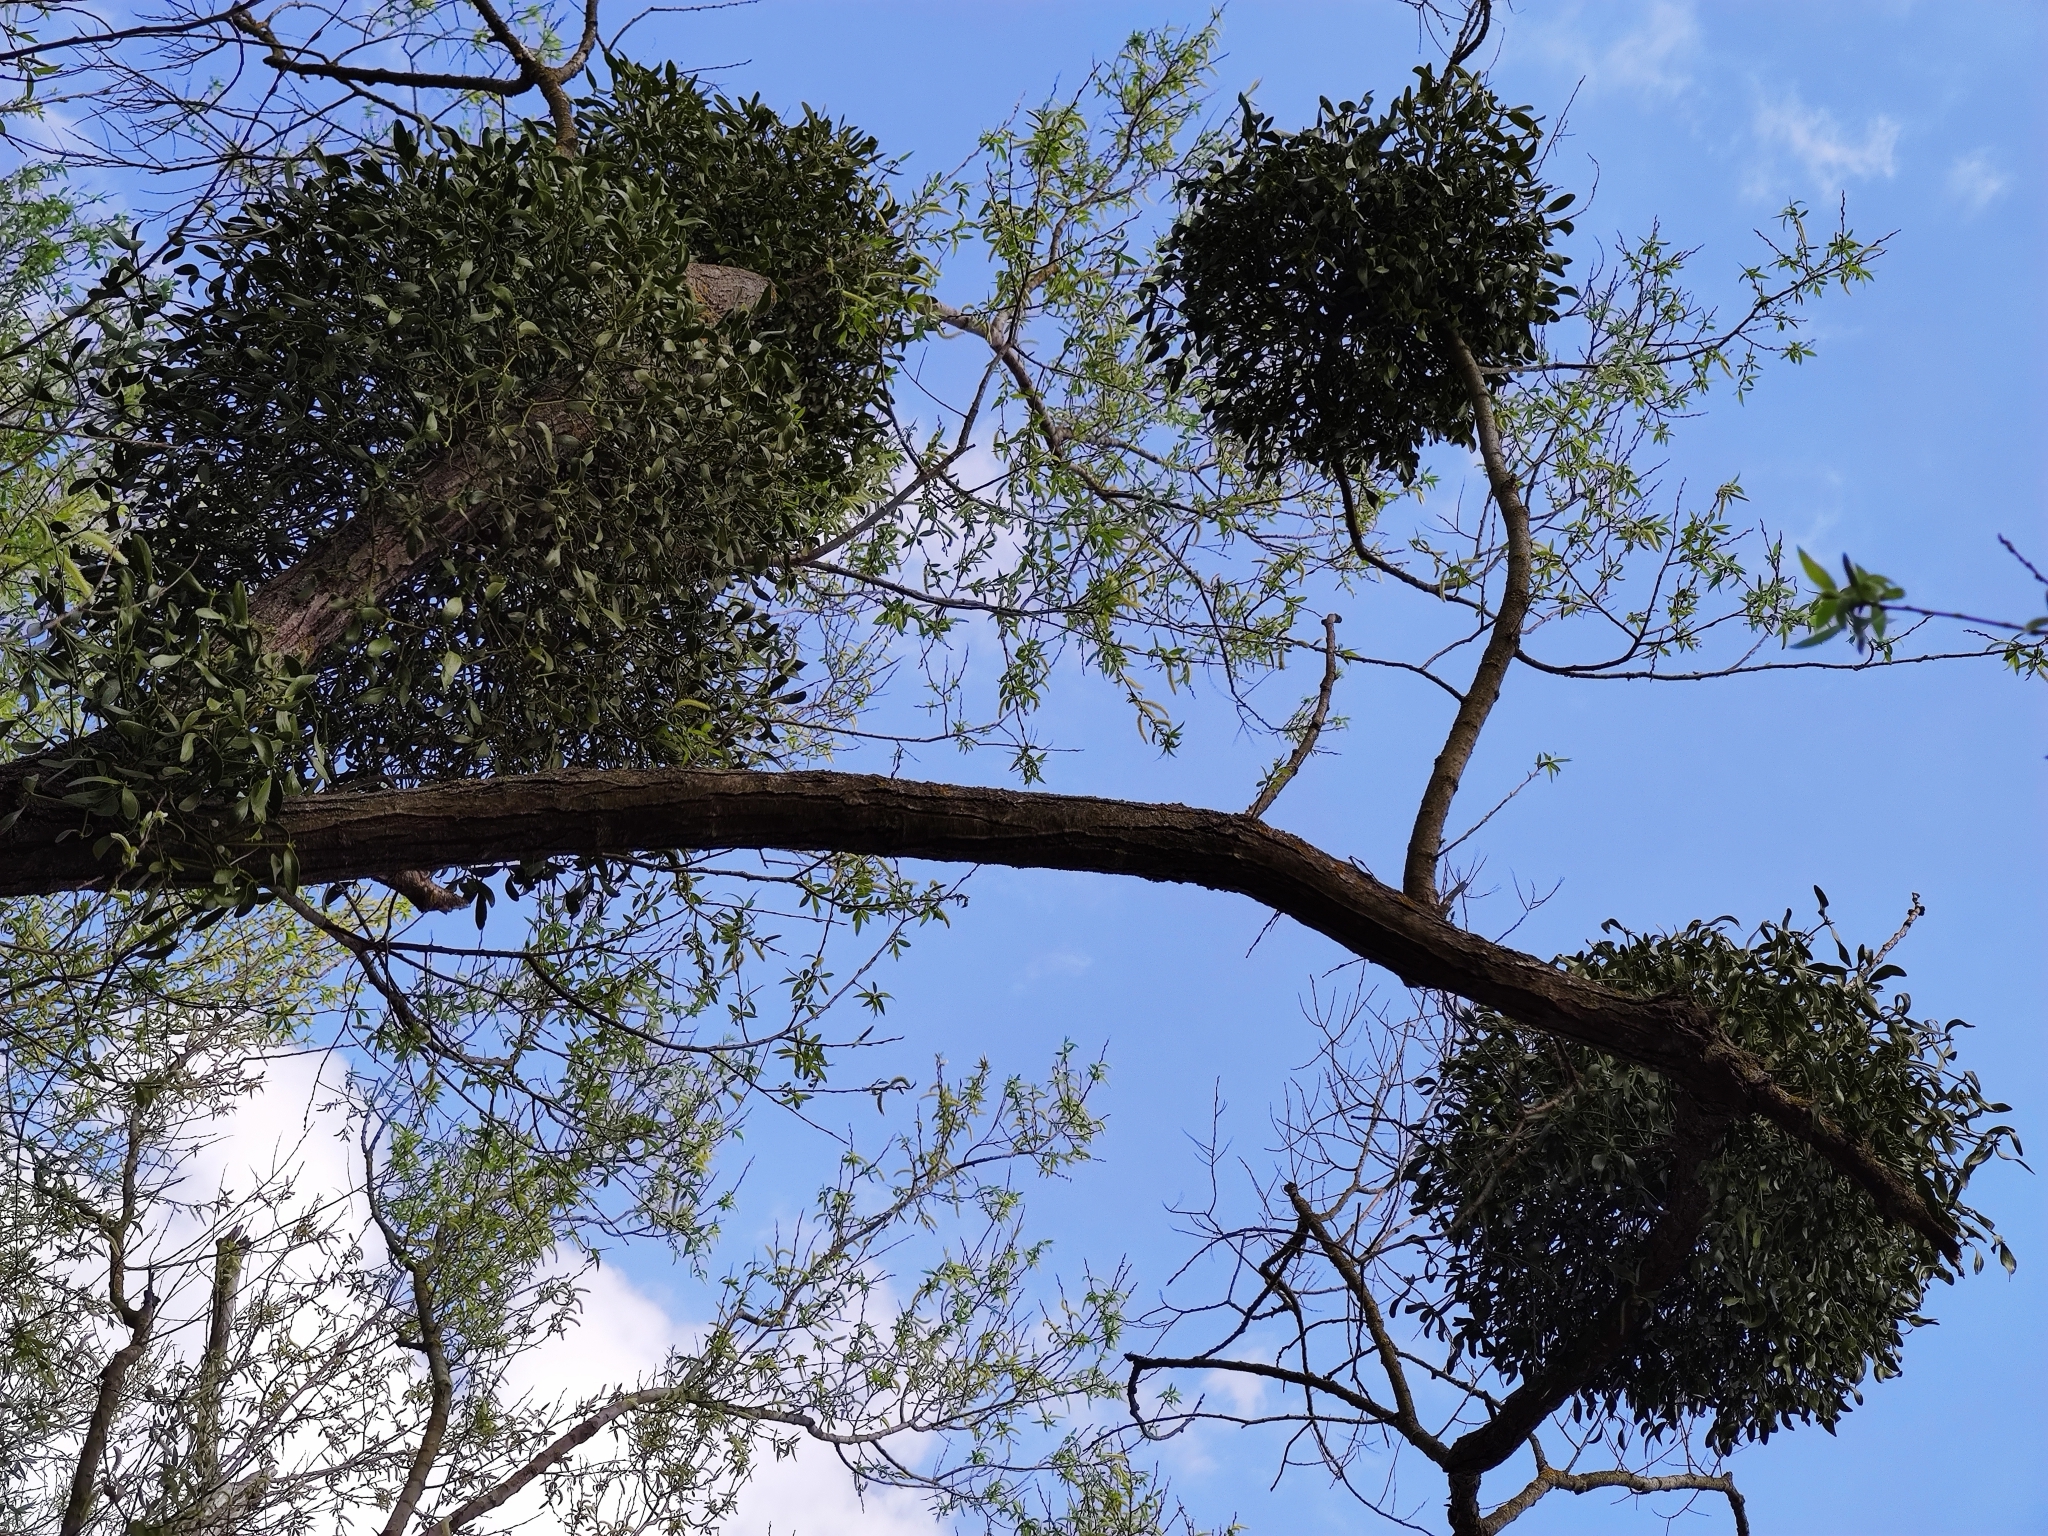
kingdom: Plantae
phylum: Tracheophyta
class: Magnoliopsida
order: Santalales
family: Viscaceae
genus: Viscum
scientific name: Viscum album
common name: Mistletoe
